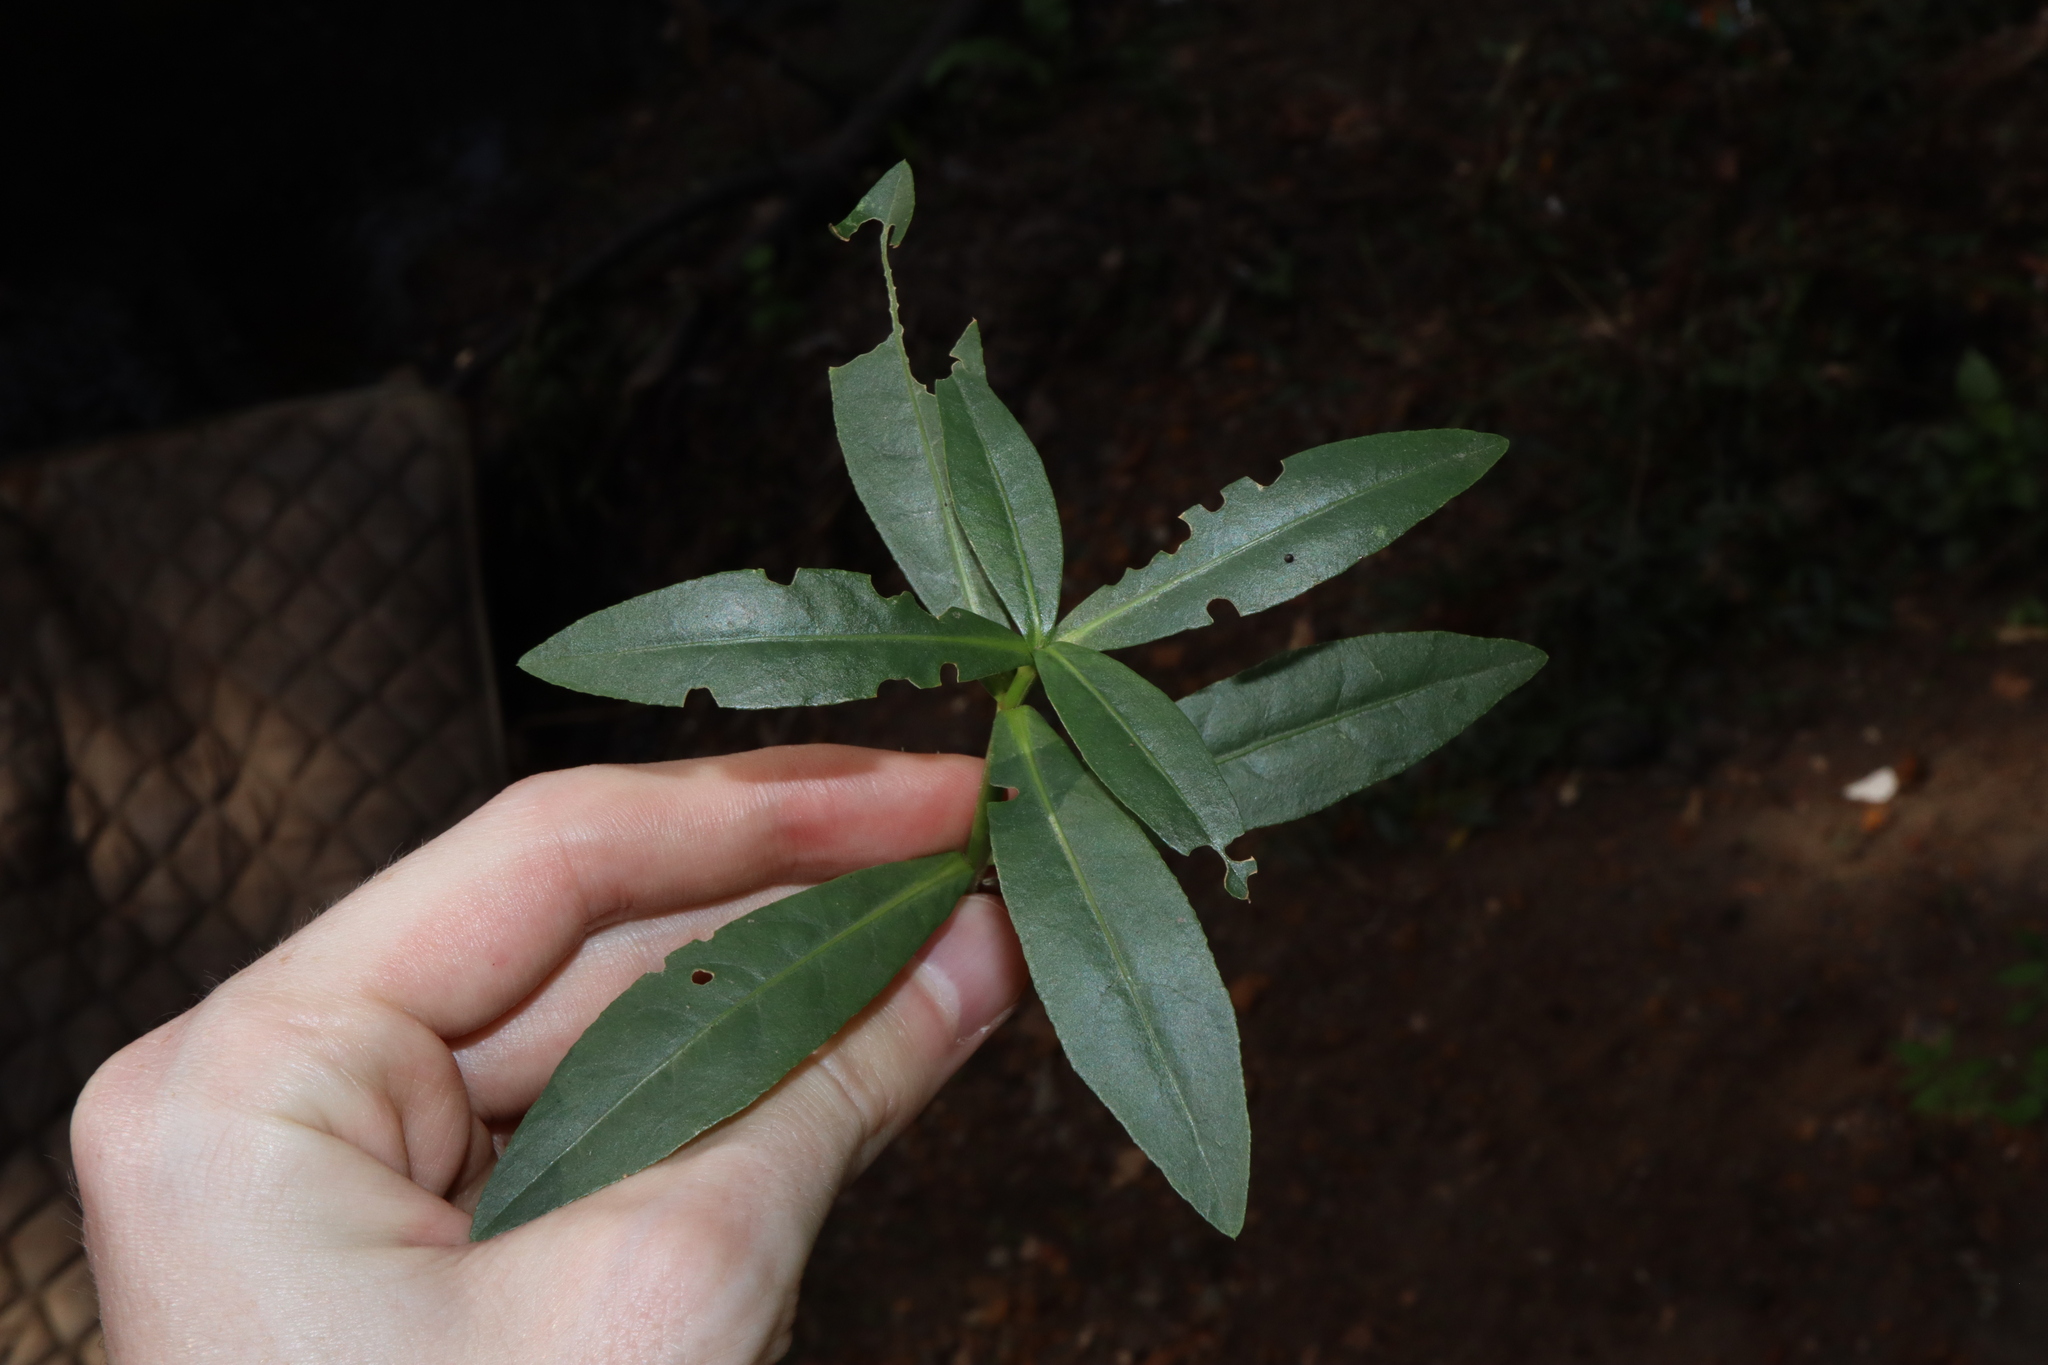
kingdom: Plantae
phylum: Tracheophyta
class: Magnoliopsida
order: Caryophyllales
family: Amaranthaceae
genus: Alternanthera
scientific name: Alternanthera philoxeroides
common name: Alligatorweed
